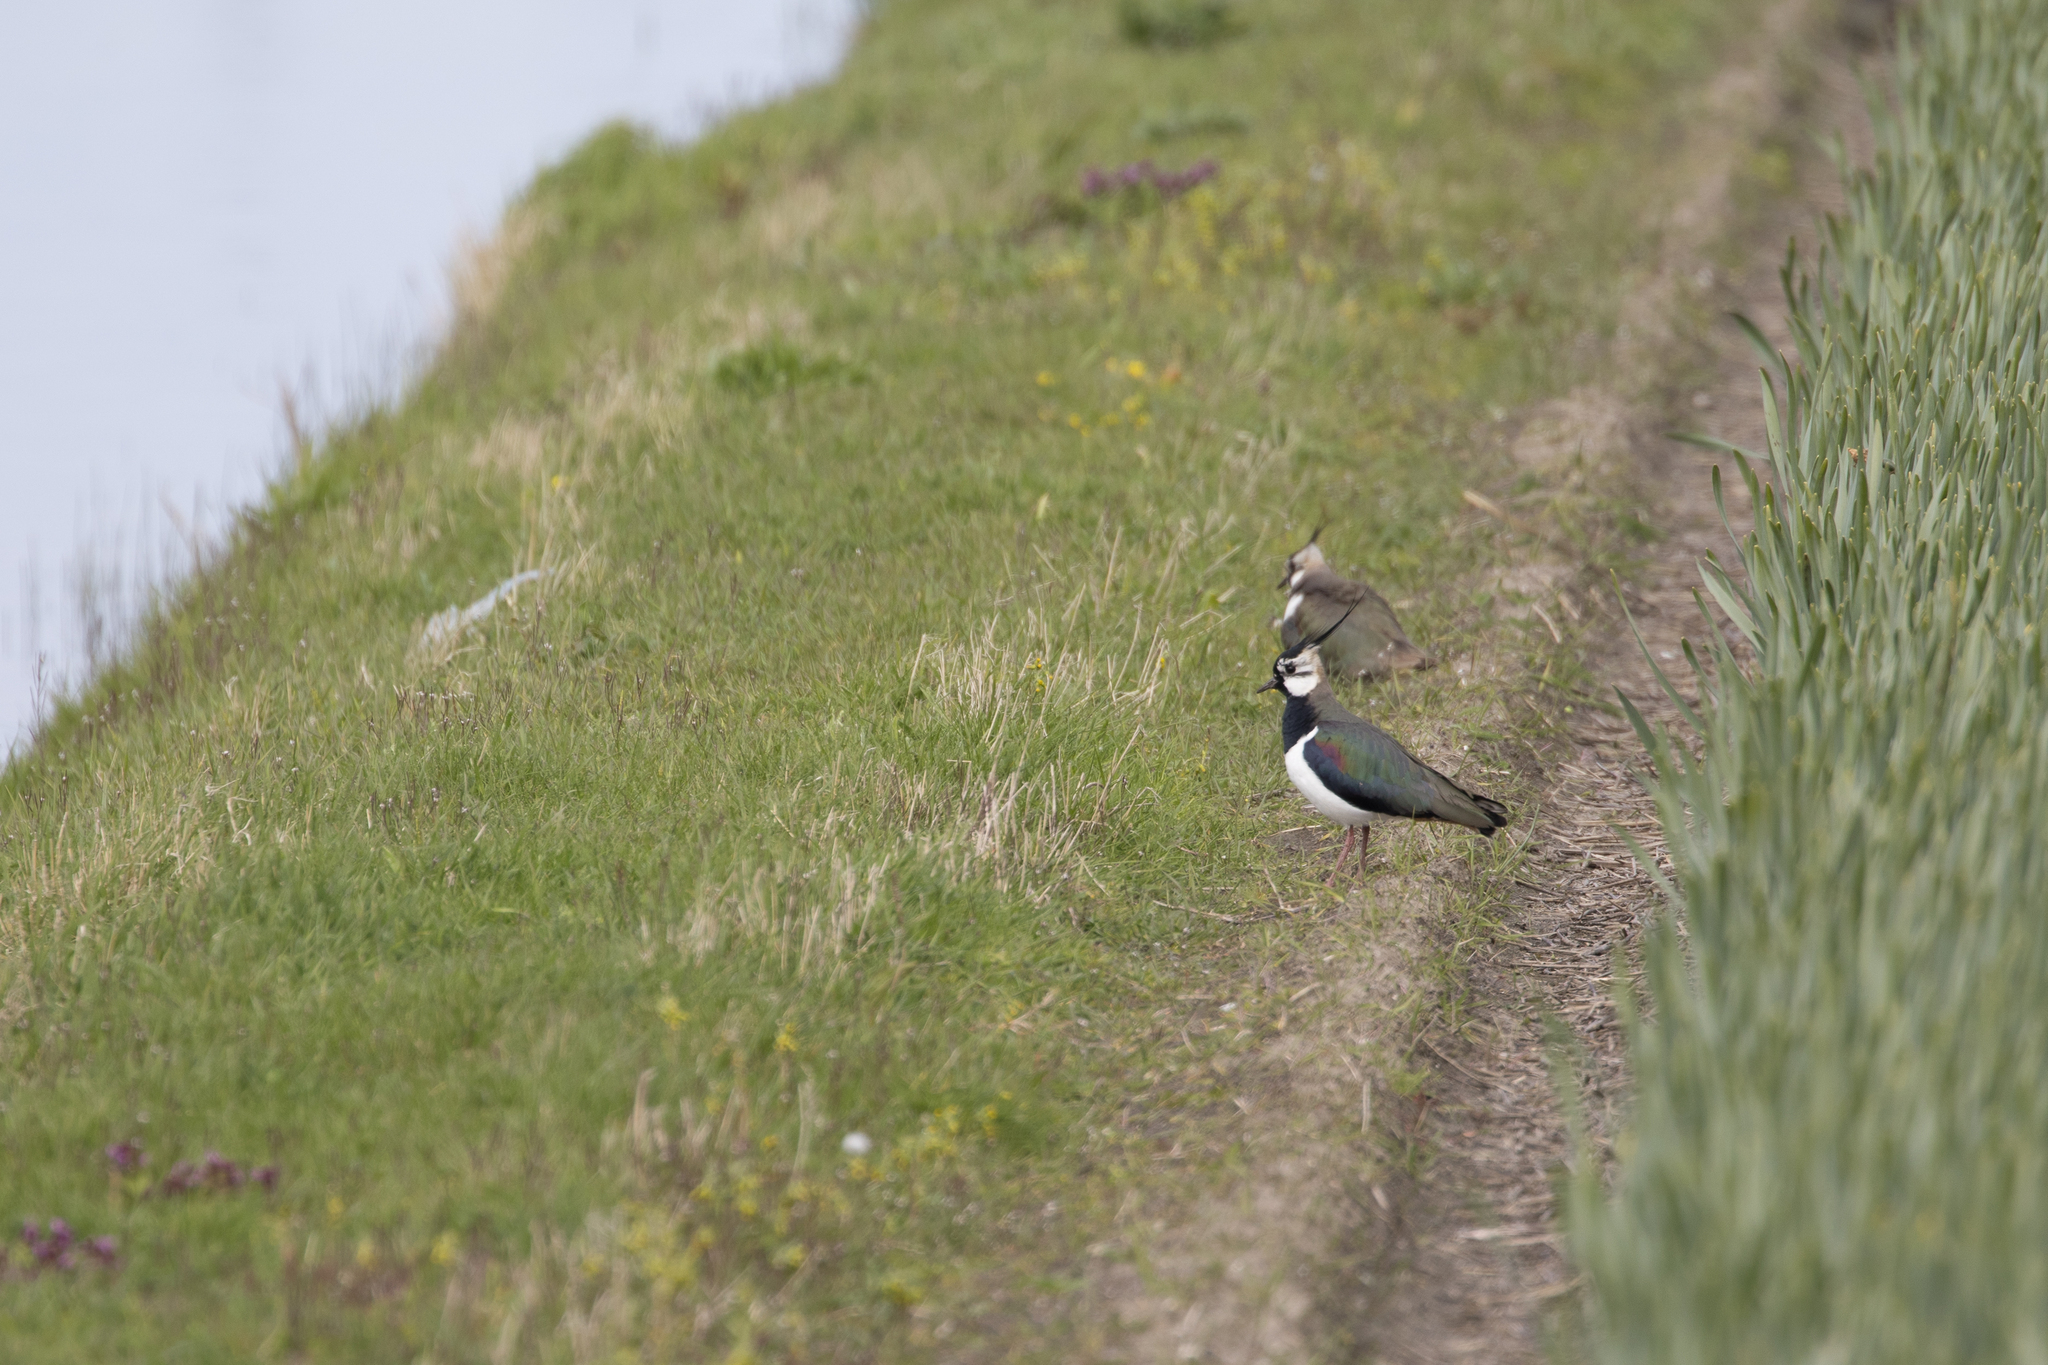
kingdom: Animalia
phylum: Chordata
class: Aves
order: Charadriiformes
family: Charadriidae
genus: Vanellus
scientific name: Vanellus vanellus
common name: Northern lapwing
